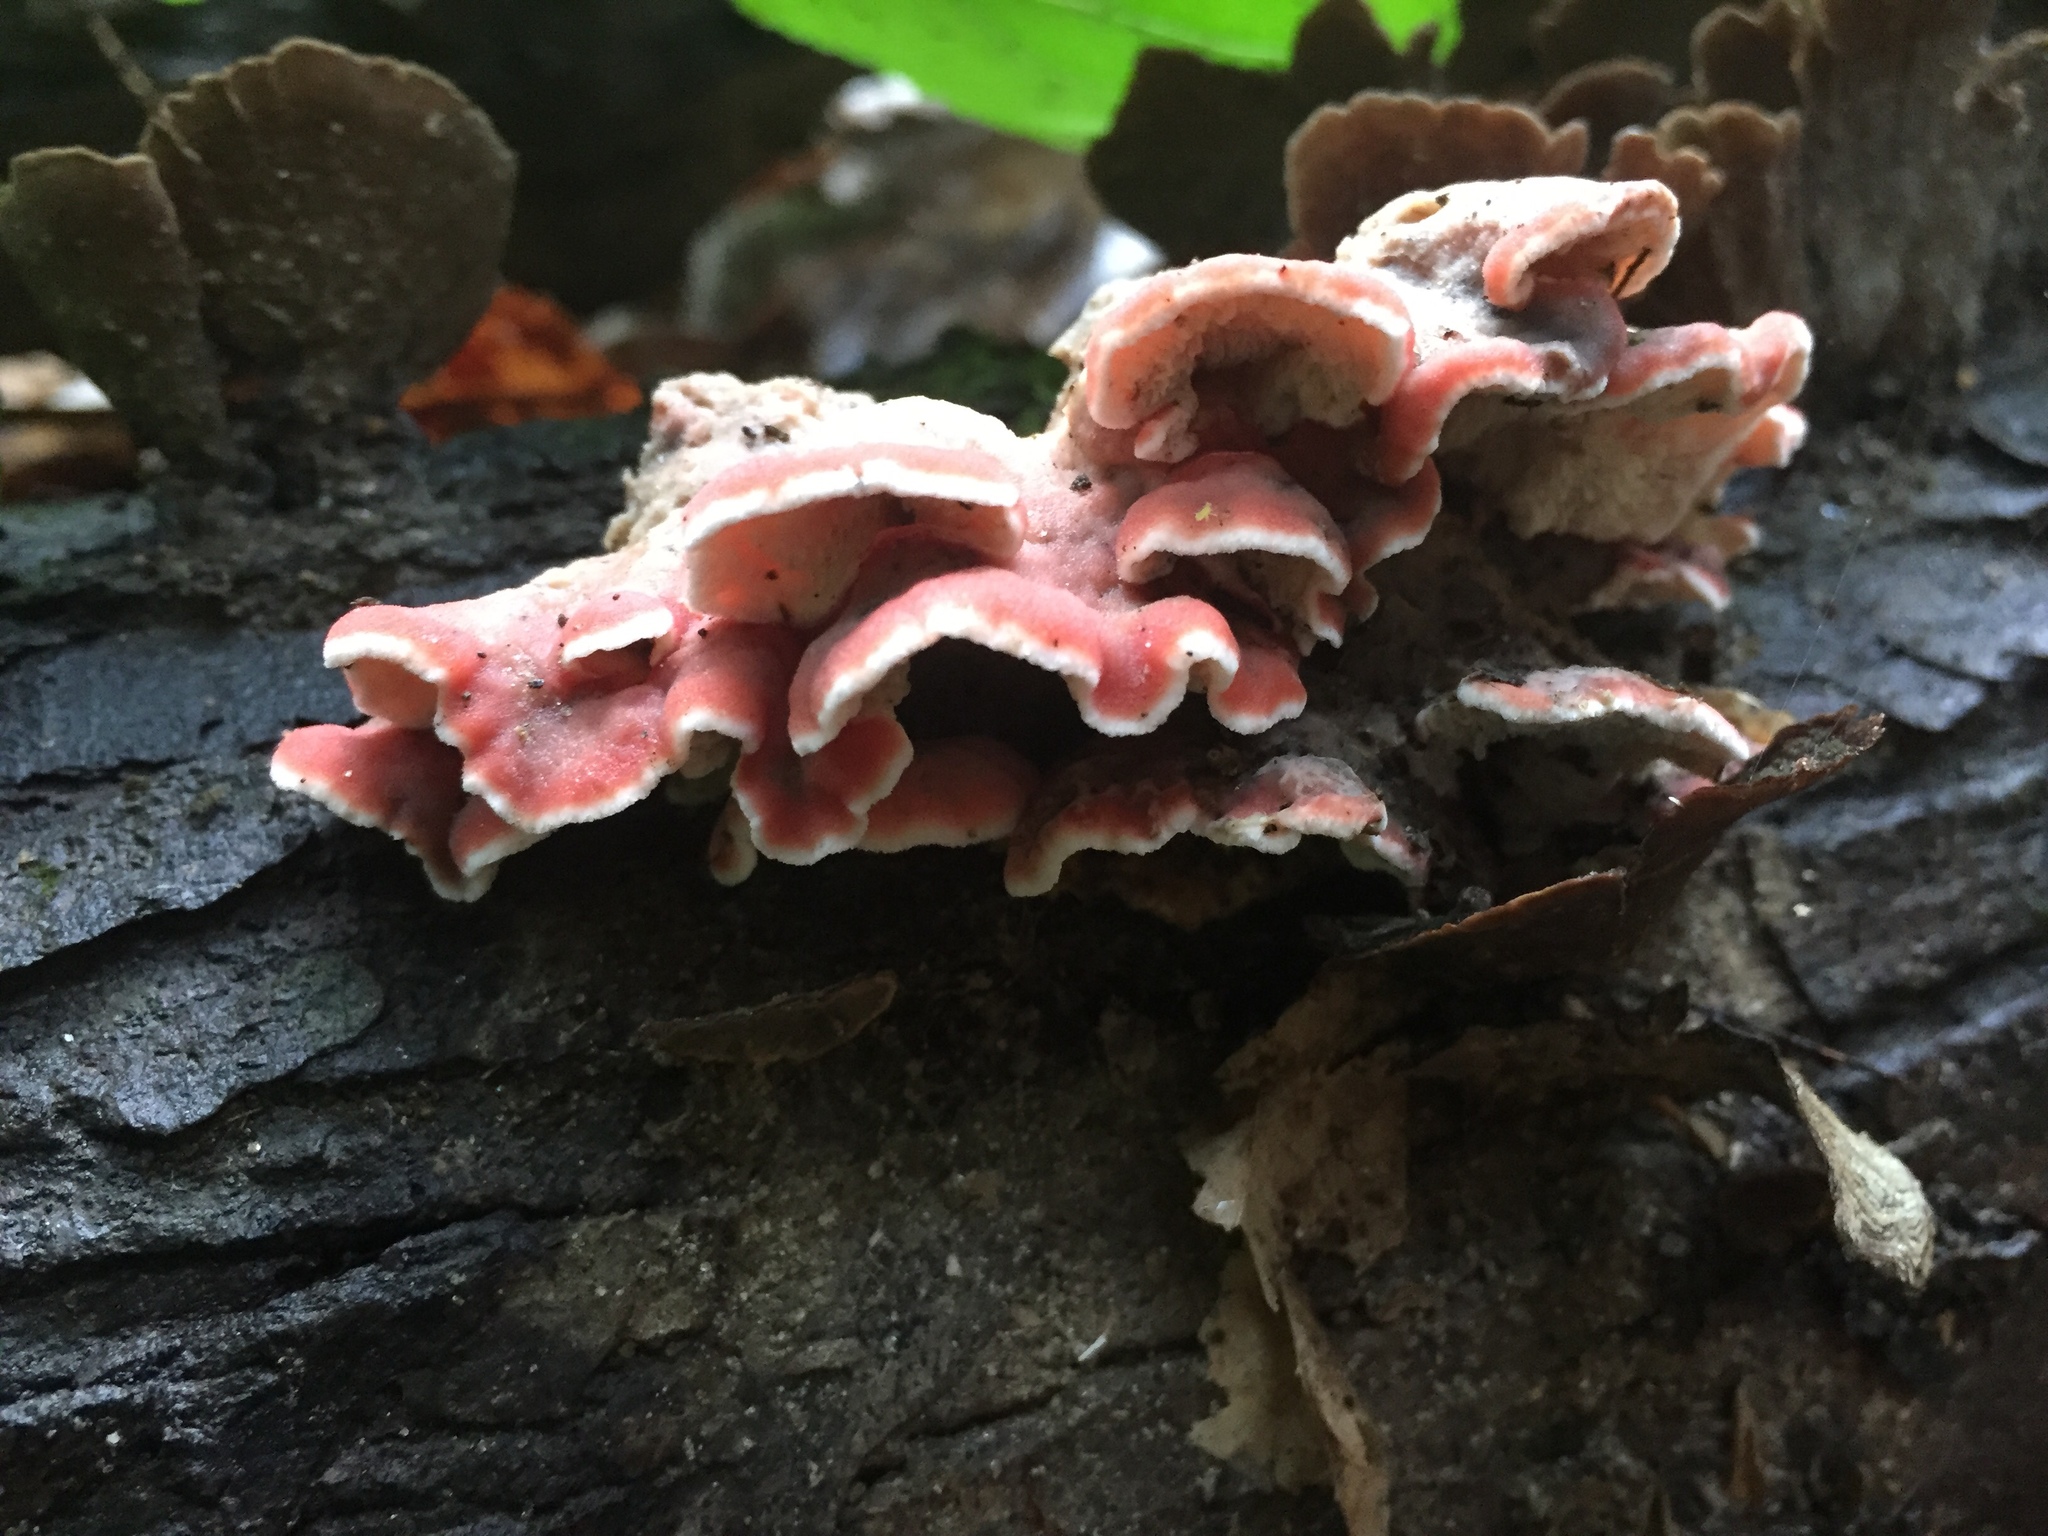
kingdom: Fungi
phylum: Basidiomycota
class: Agaricomycetes
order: Polyporales
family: Irpicaceae
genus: Byssomerulius
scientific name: Byssomerulius incarnatus
